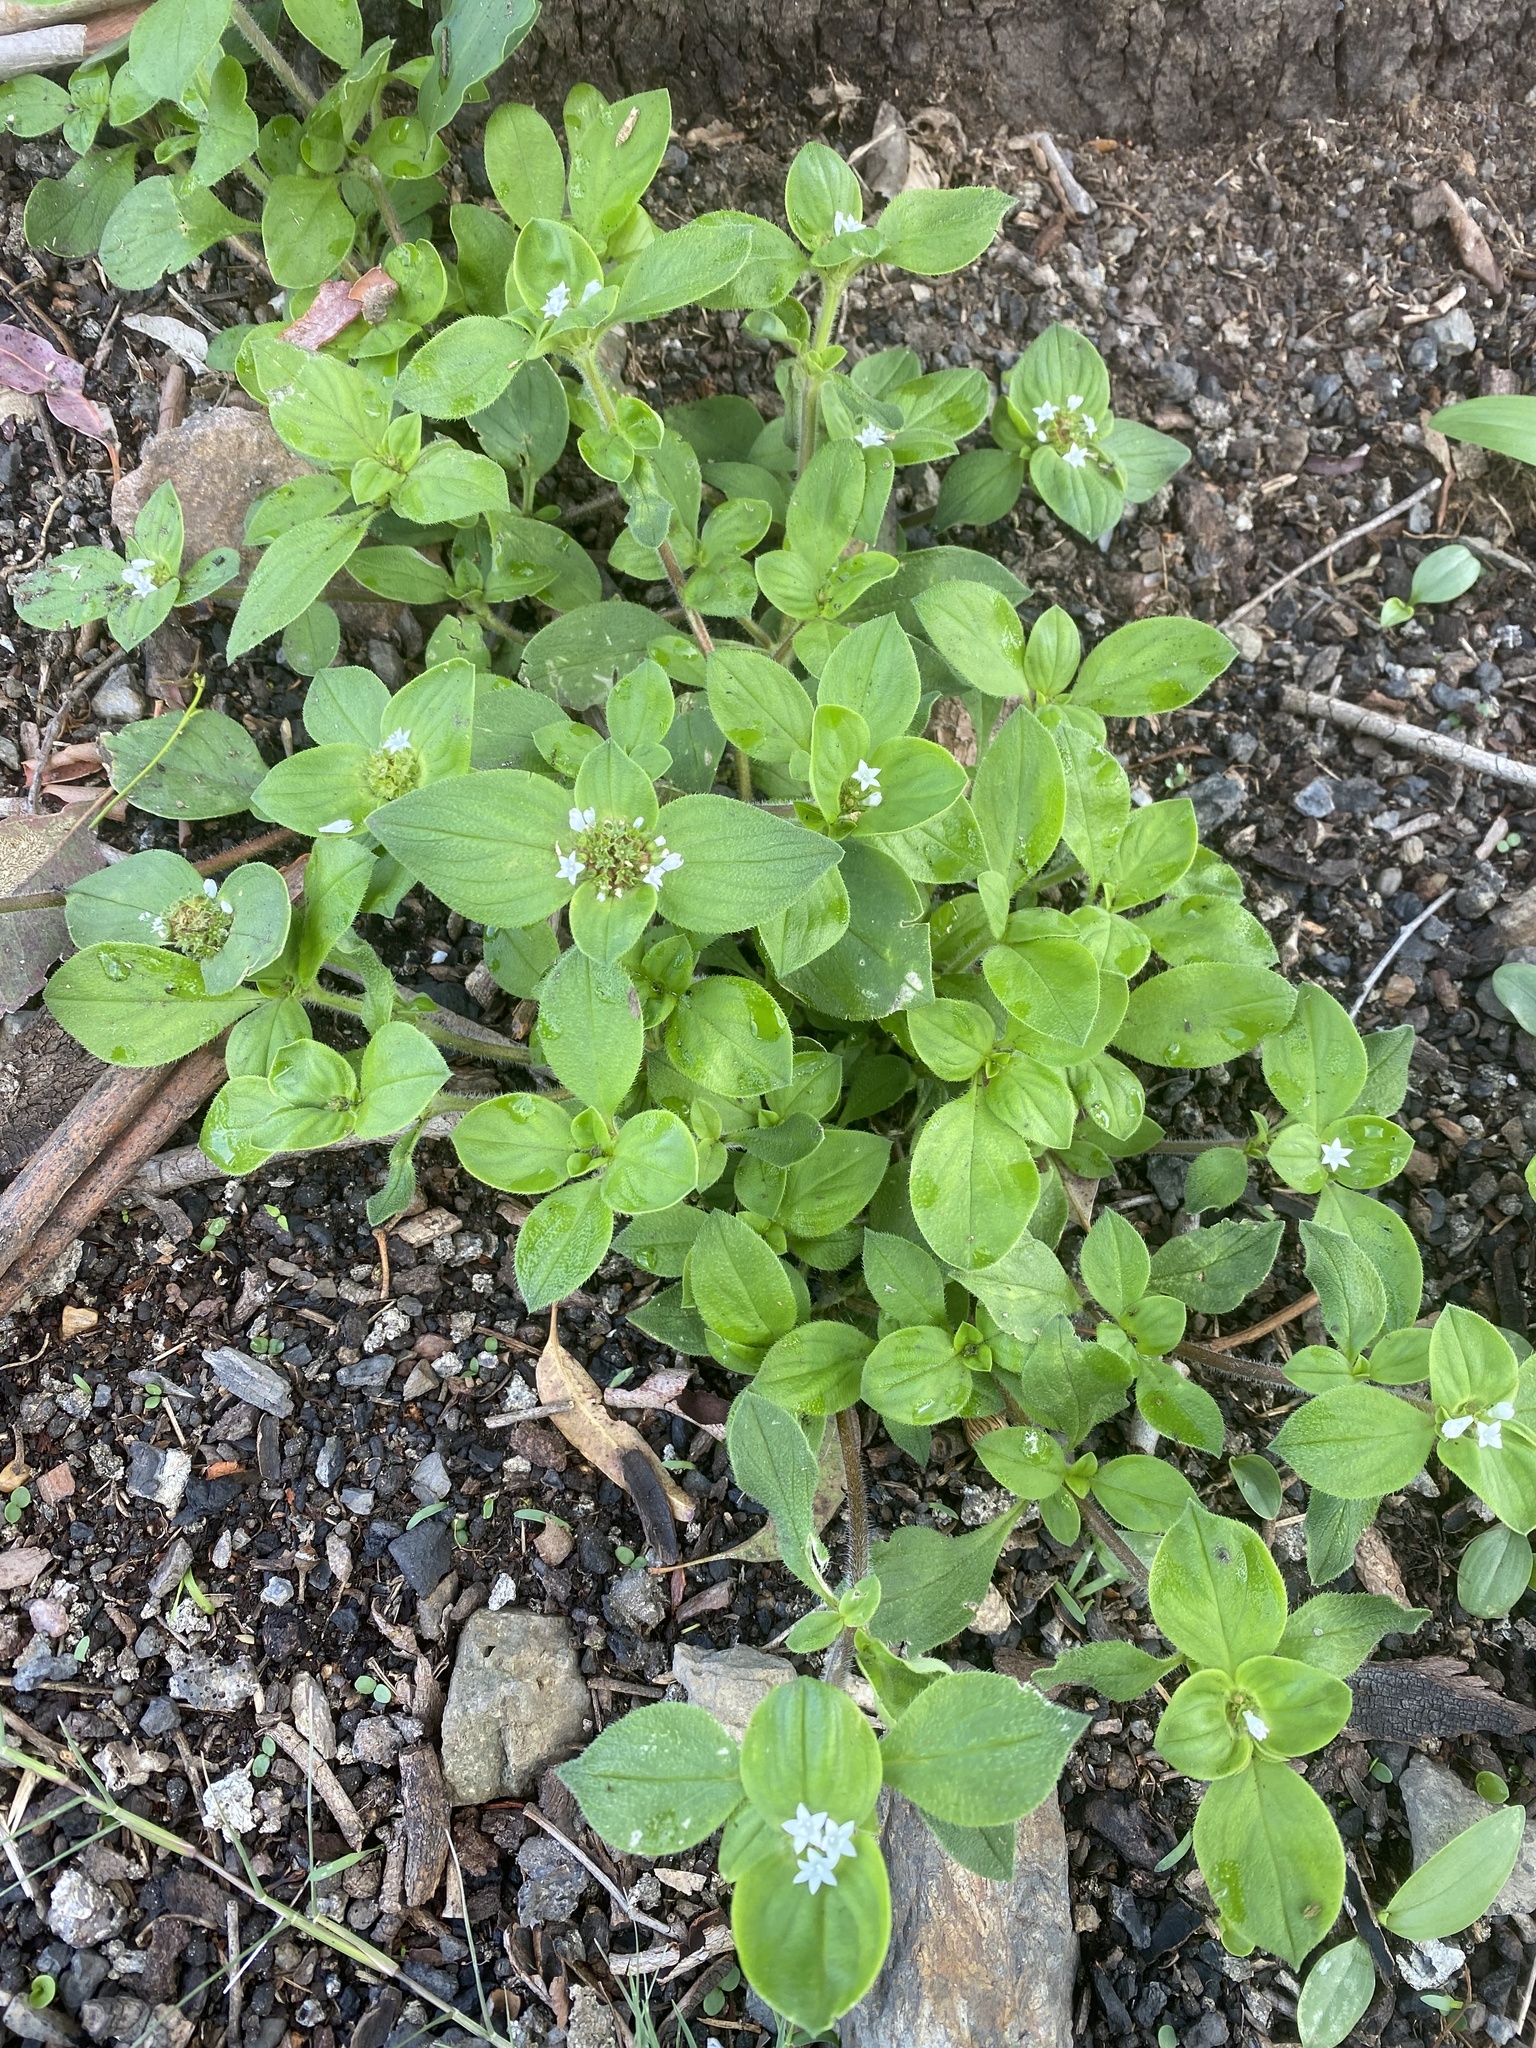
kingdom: Plantae
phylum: Tracheophyta
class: Magnoliopsida
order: Gentianales
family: Rubiaceae
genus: Richardia
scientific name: Richardia brasiliensis
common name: Tropical mexican clover
